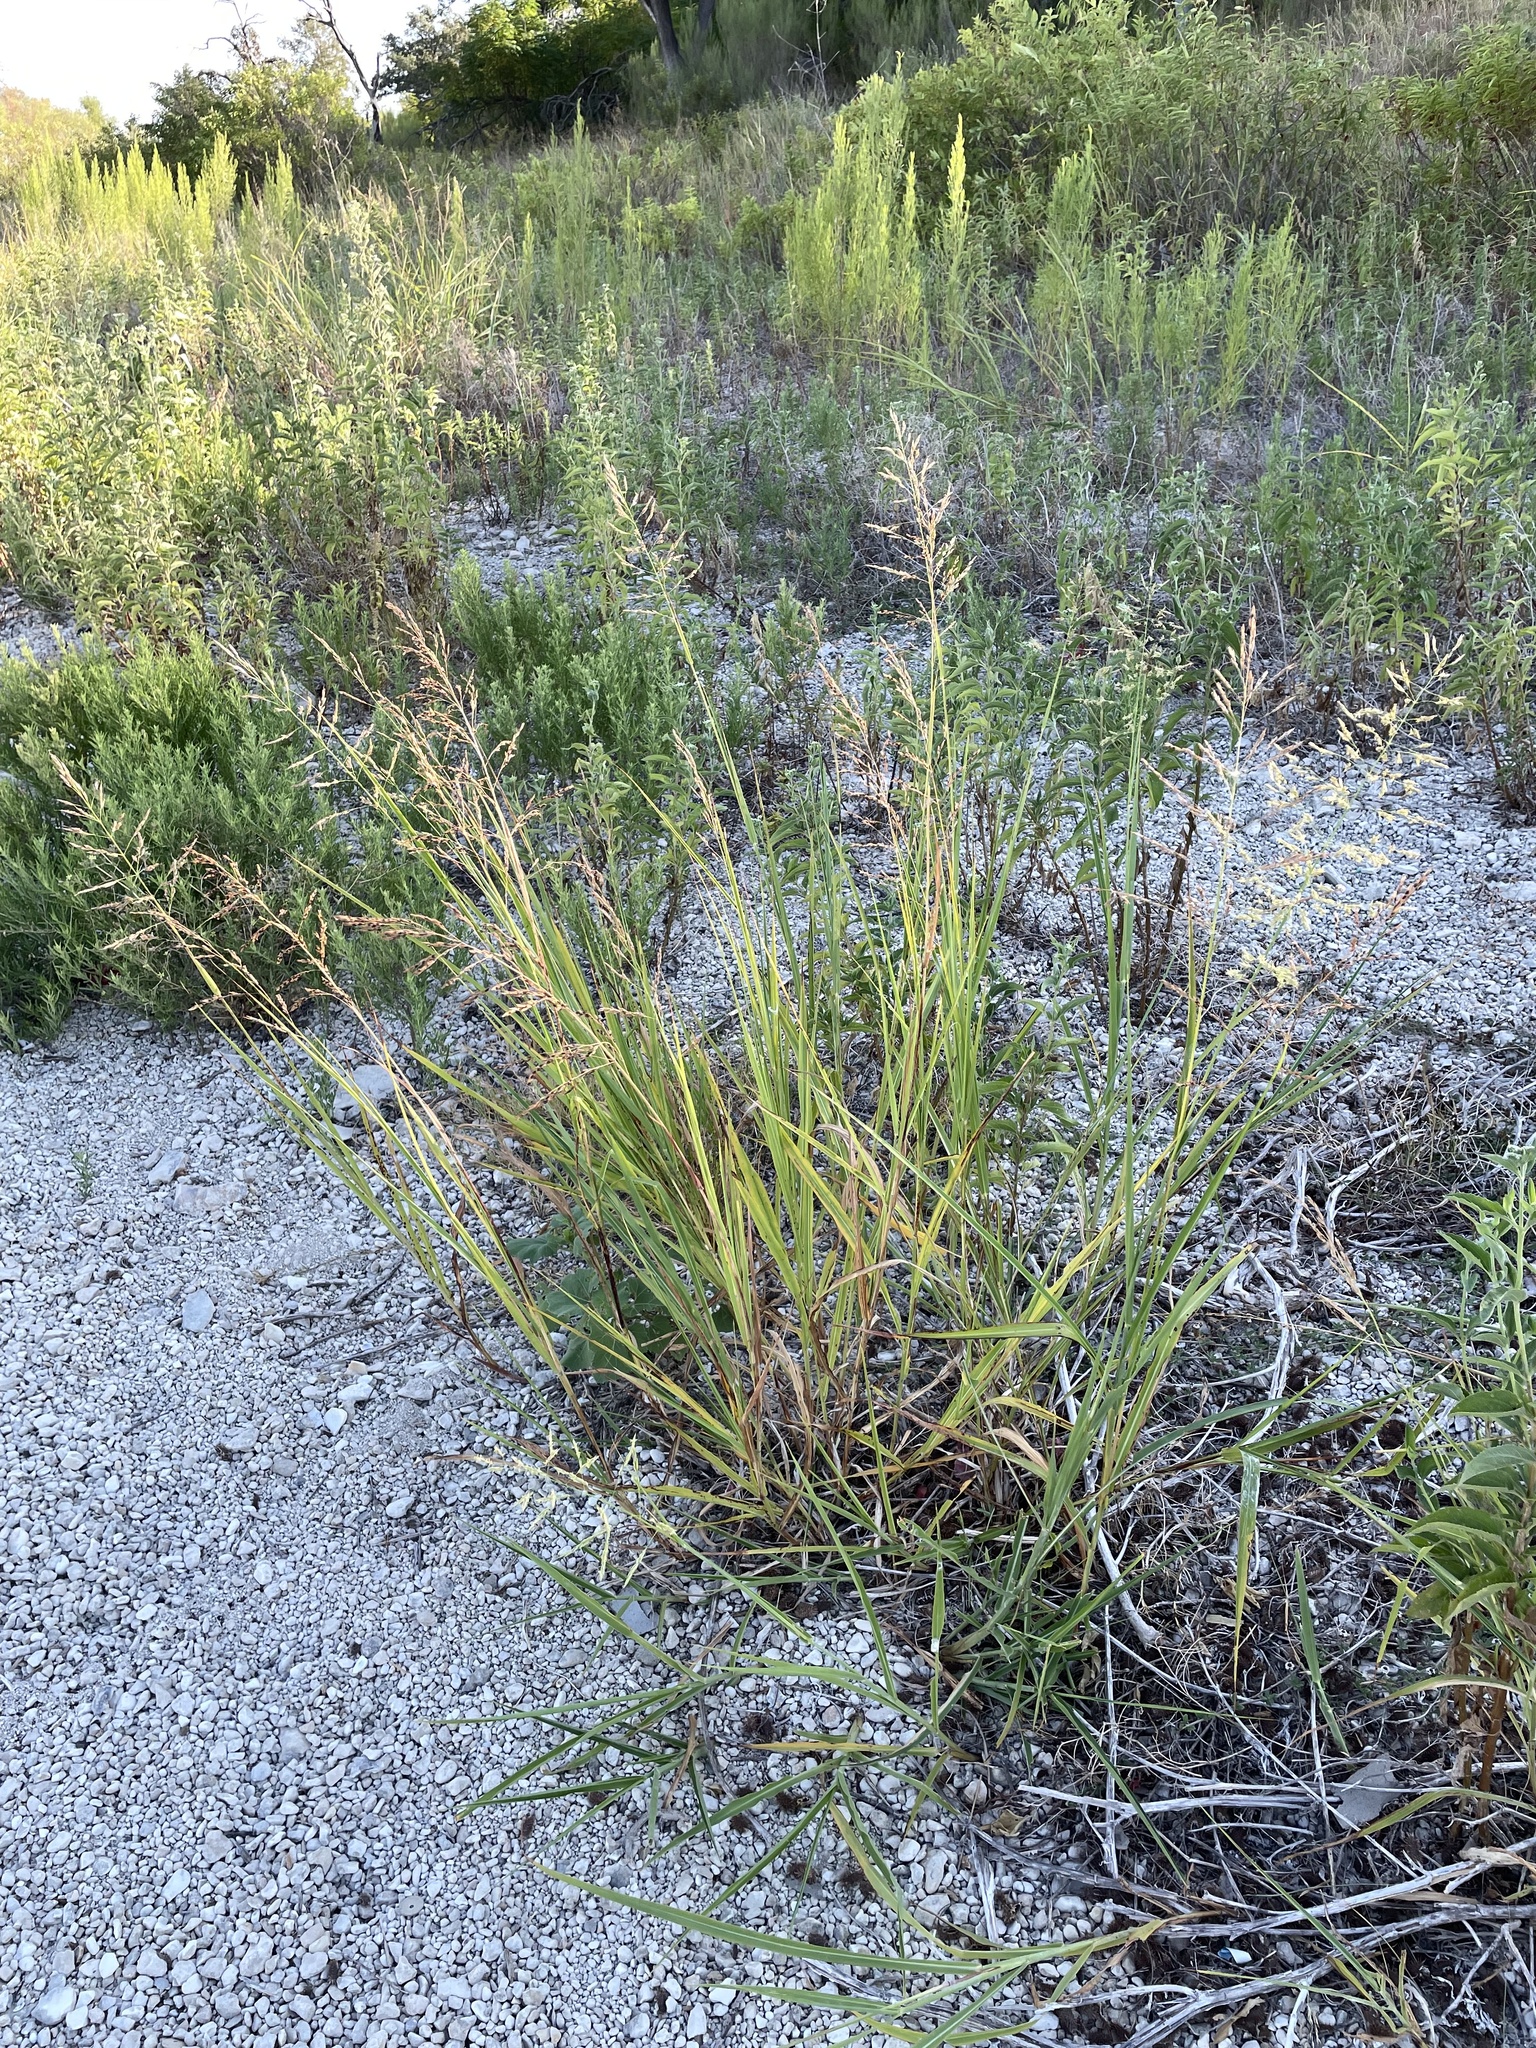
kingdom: Plantae
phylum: Tracheophyta
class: Liliopsida
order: Poales
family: Poaceae
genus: Sorghum
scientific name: Sorghum halepense
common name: Johnson-grass
